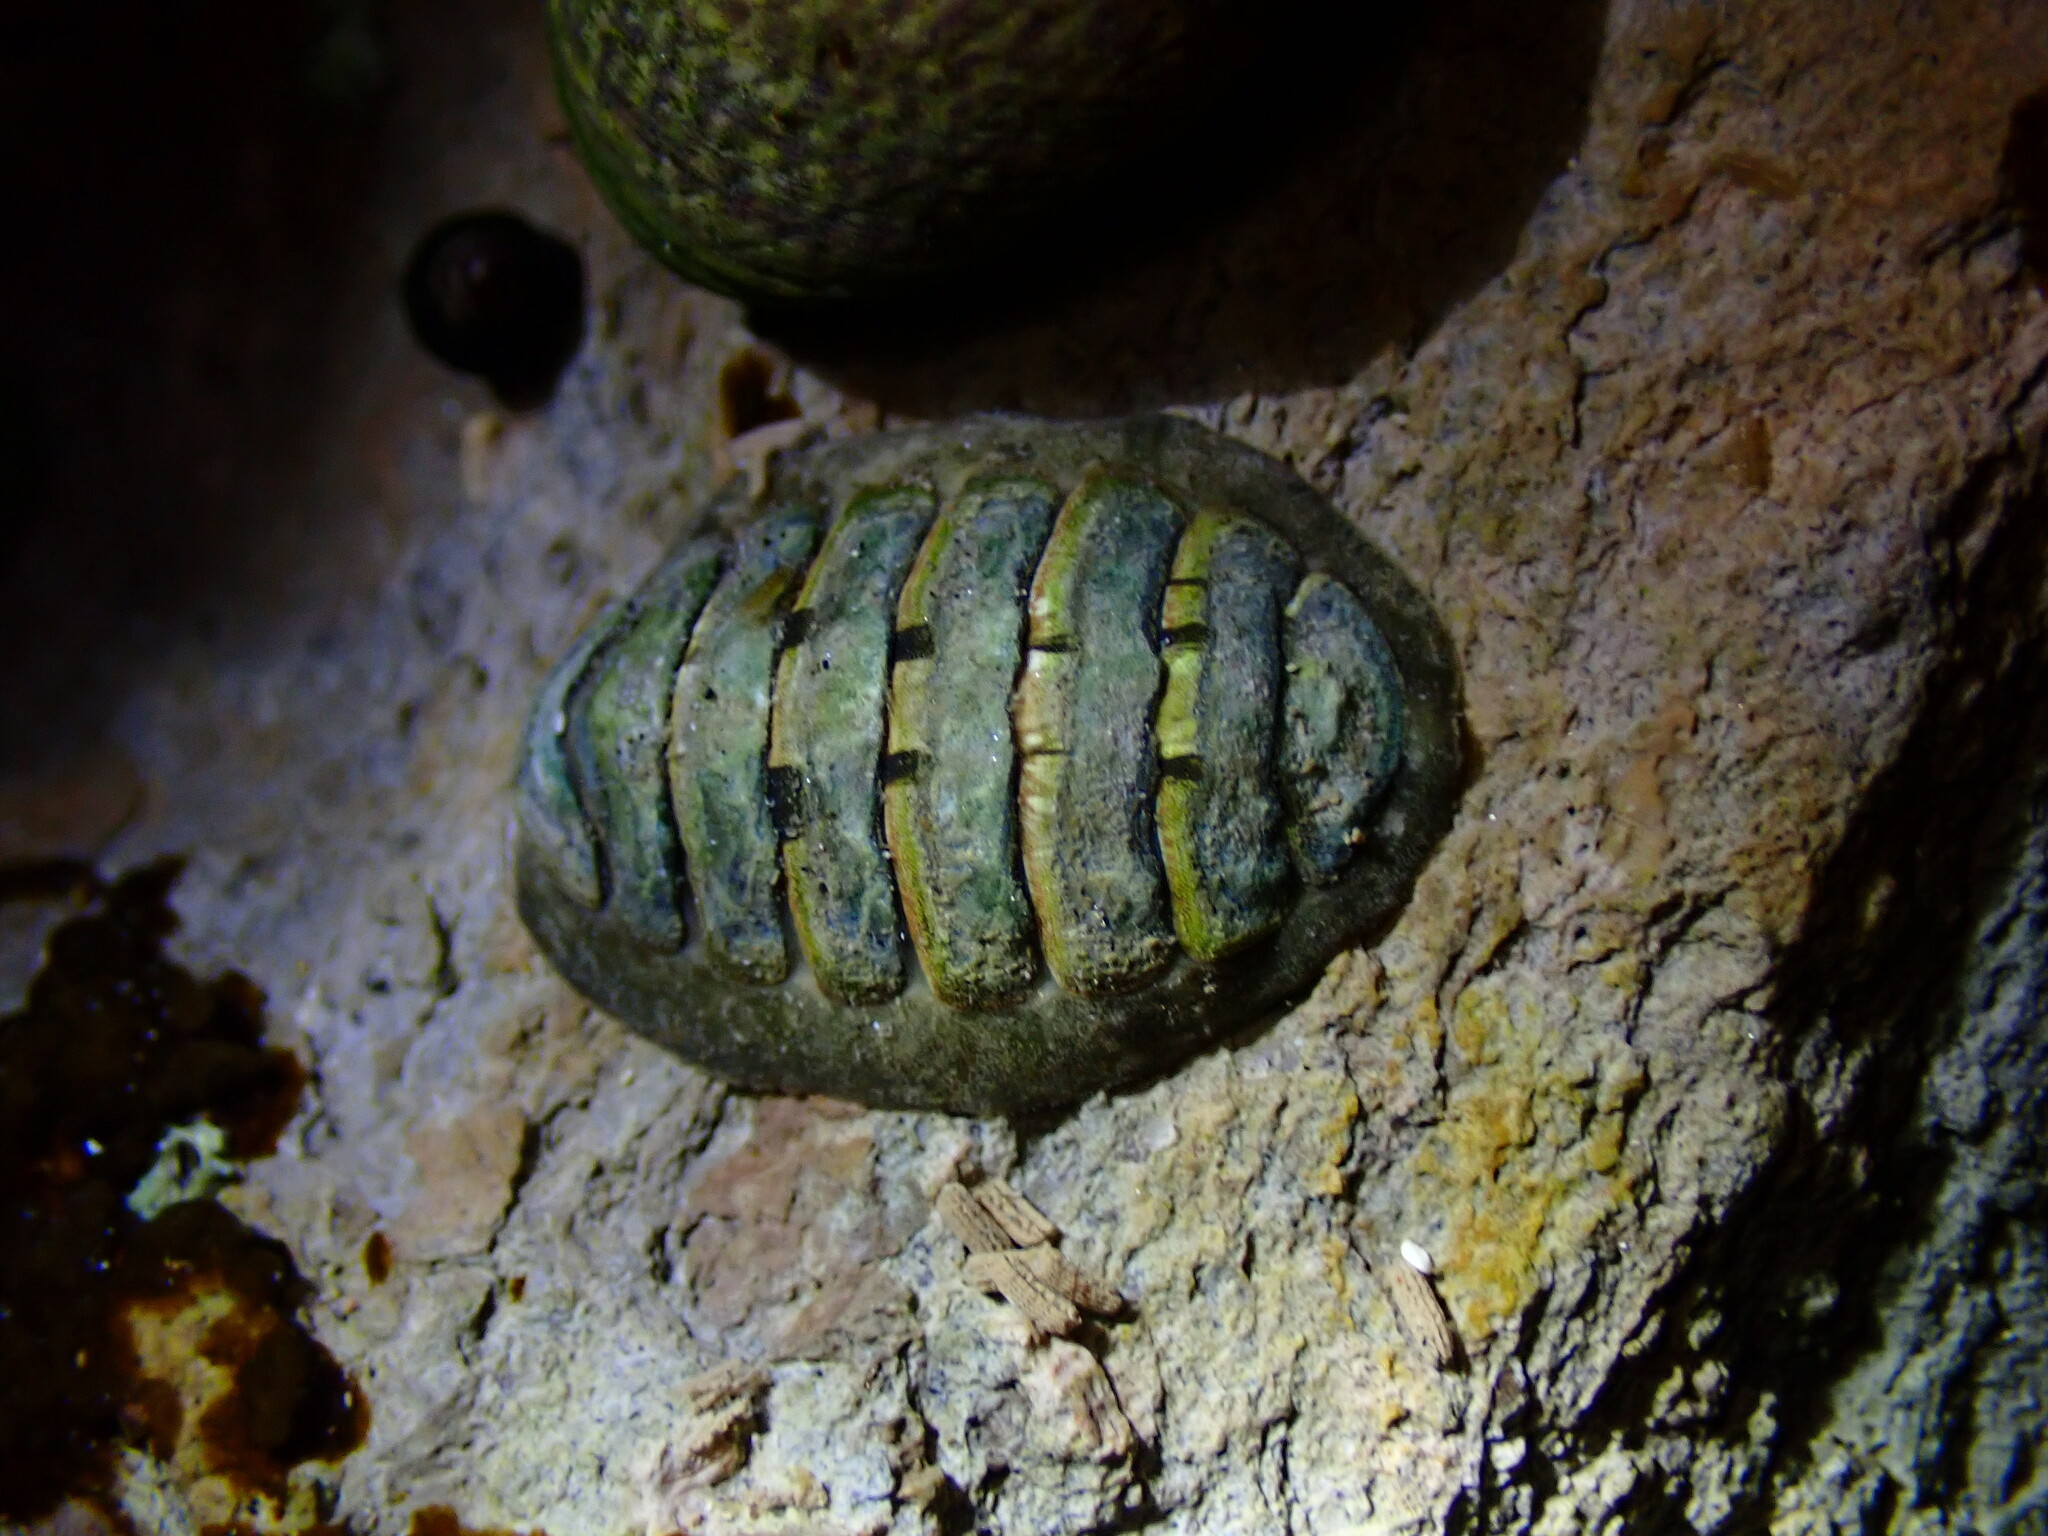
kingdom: Animalia
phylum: Mollusca
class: Polyplacophora
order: Chitonida
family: Tonicellidae
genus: Cyanoplax
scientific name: Cyanoplax hartwegii
